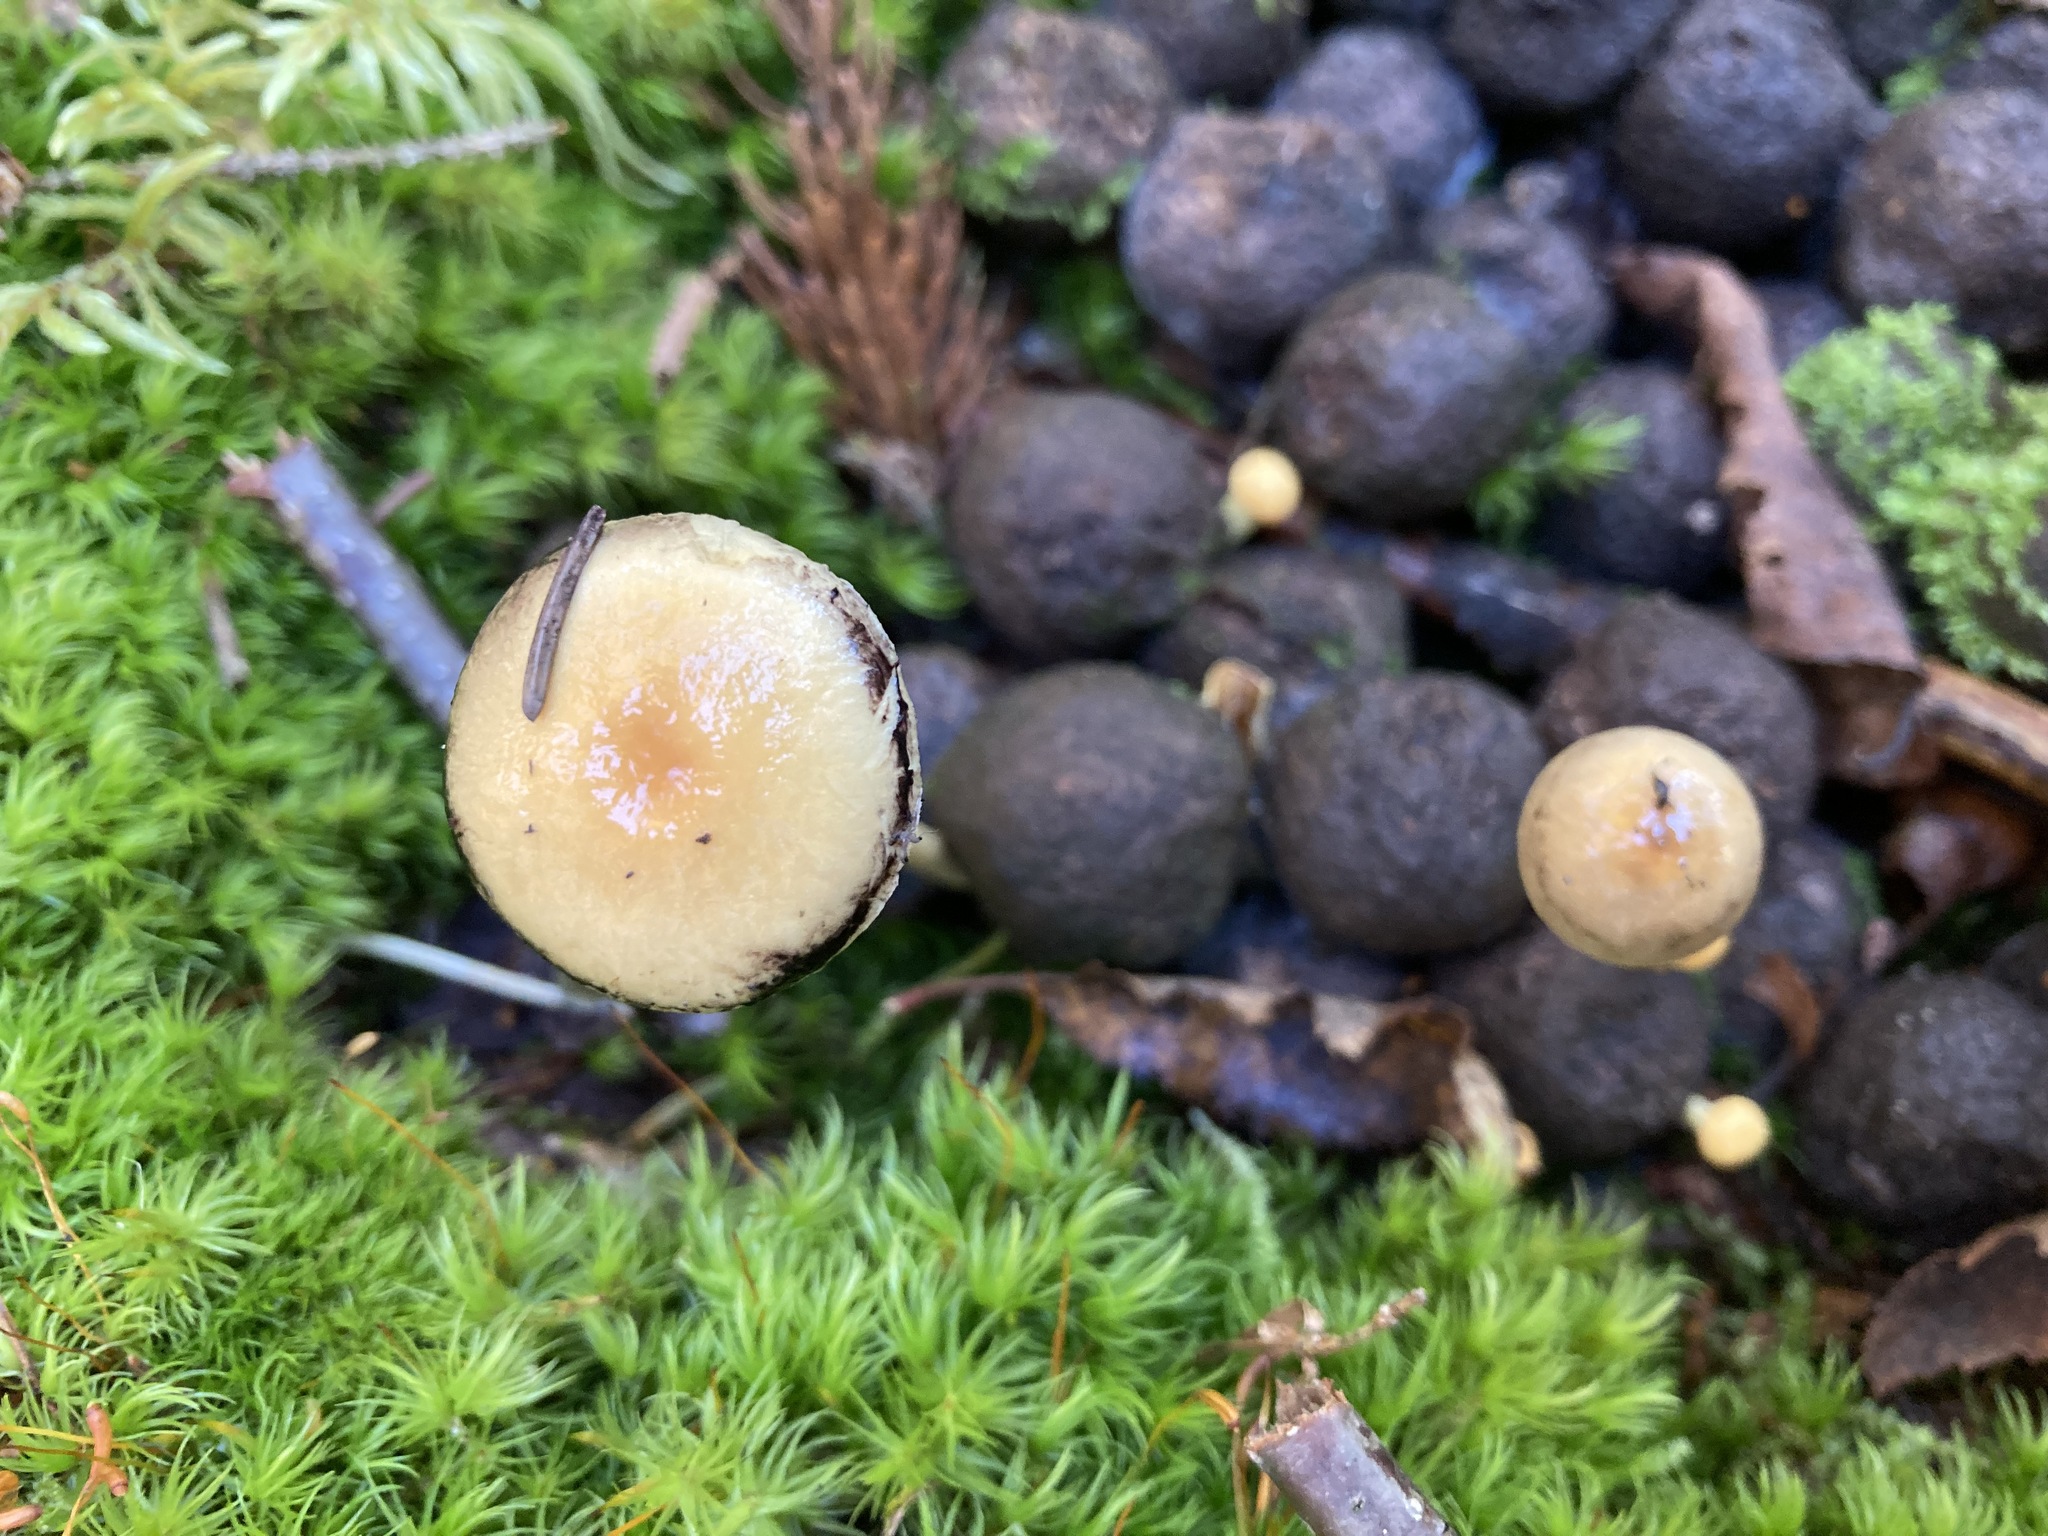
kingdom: Fungi
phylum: Basidiomycota
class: Agaricomycetes
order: Agaricales
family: Strophariaceae
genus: Protostropharia
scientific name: Protostropharia semiglobata
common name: Dung roundhead
